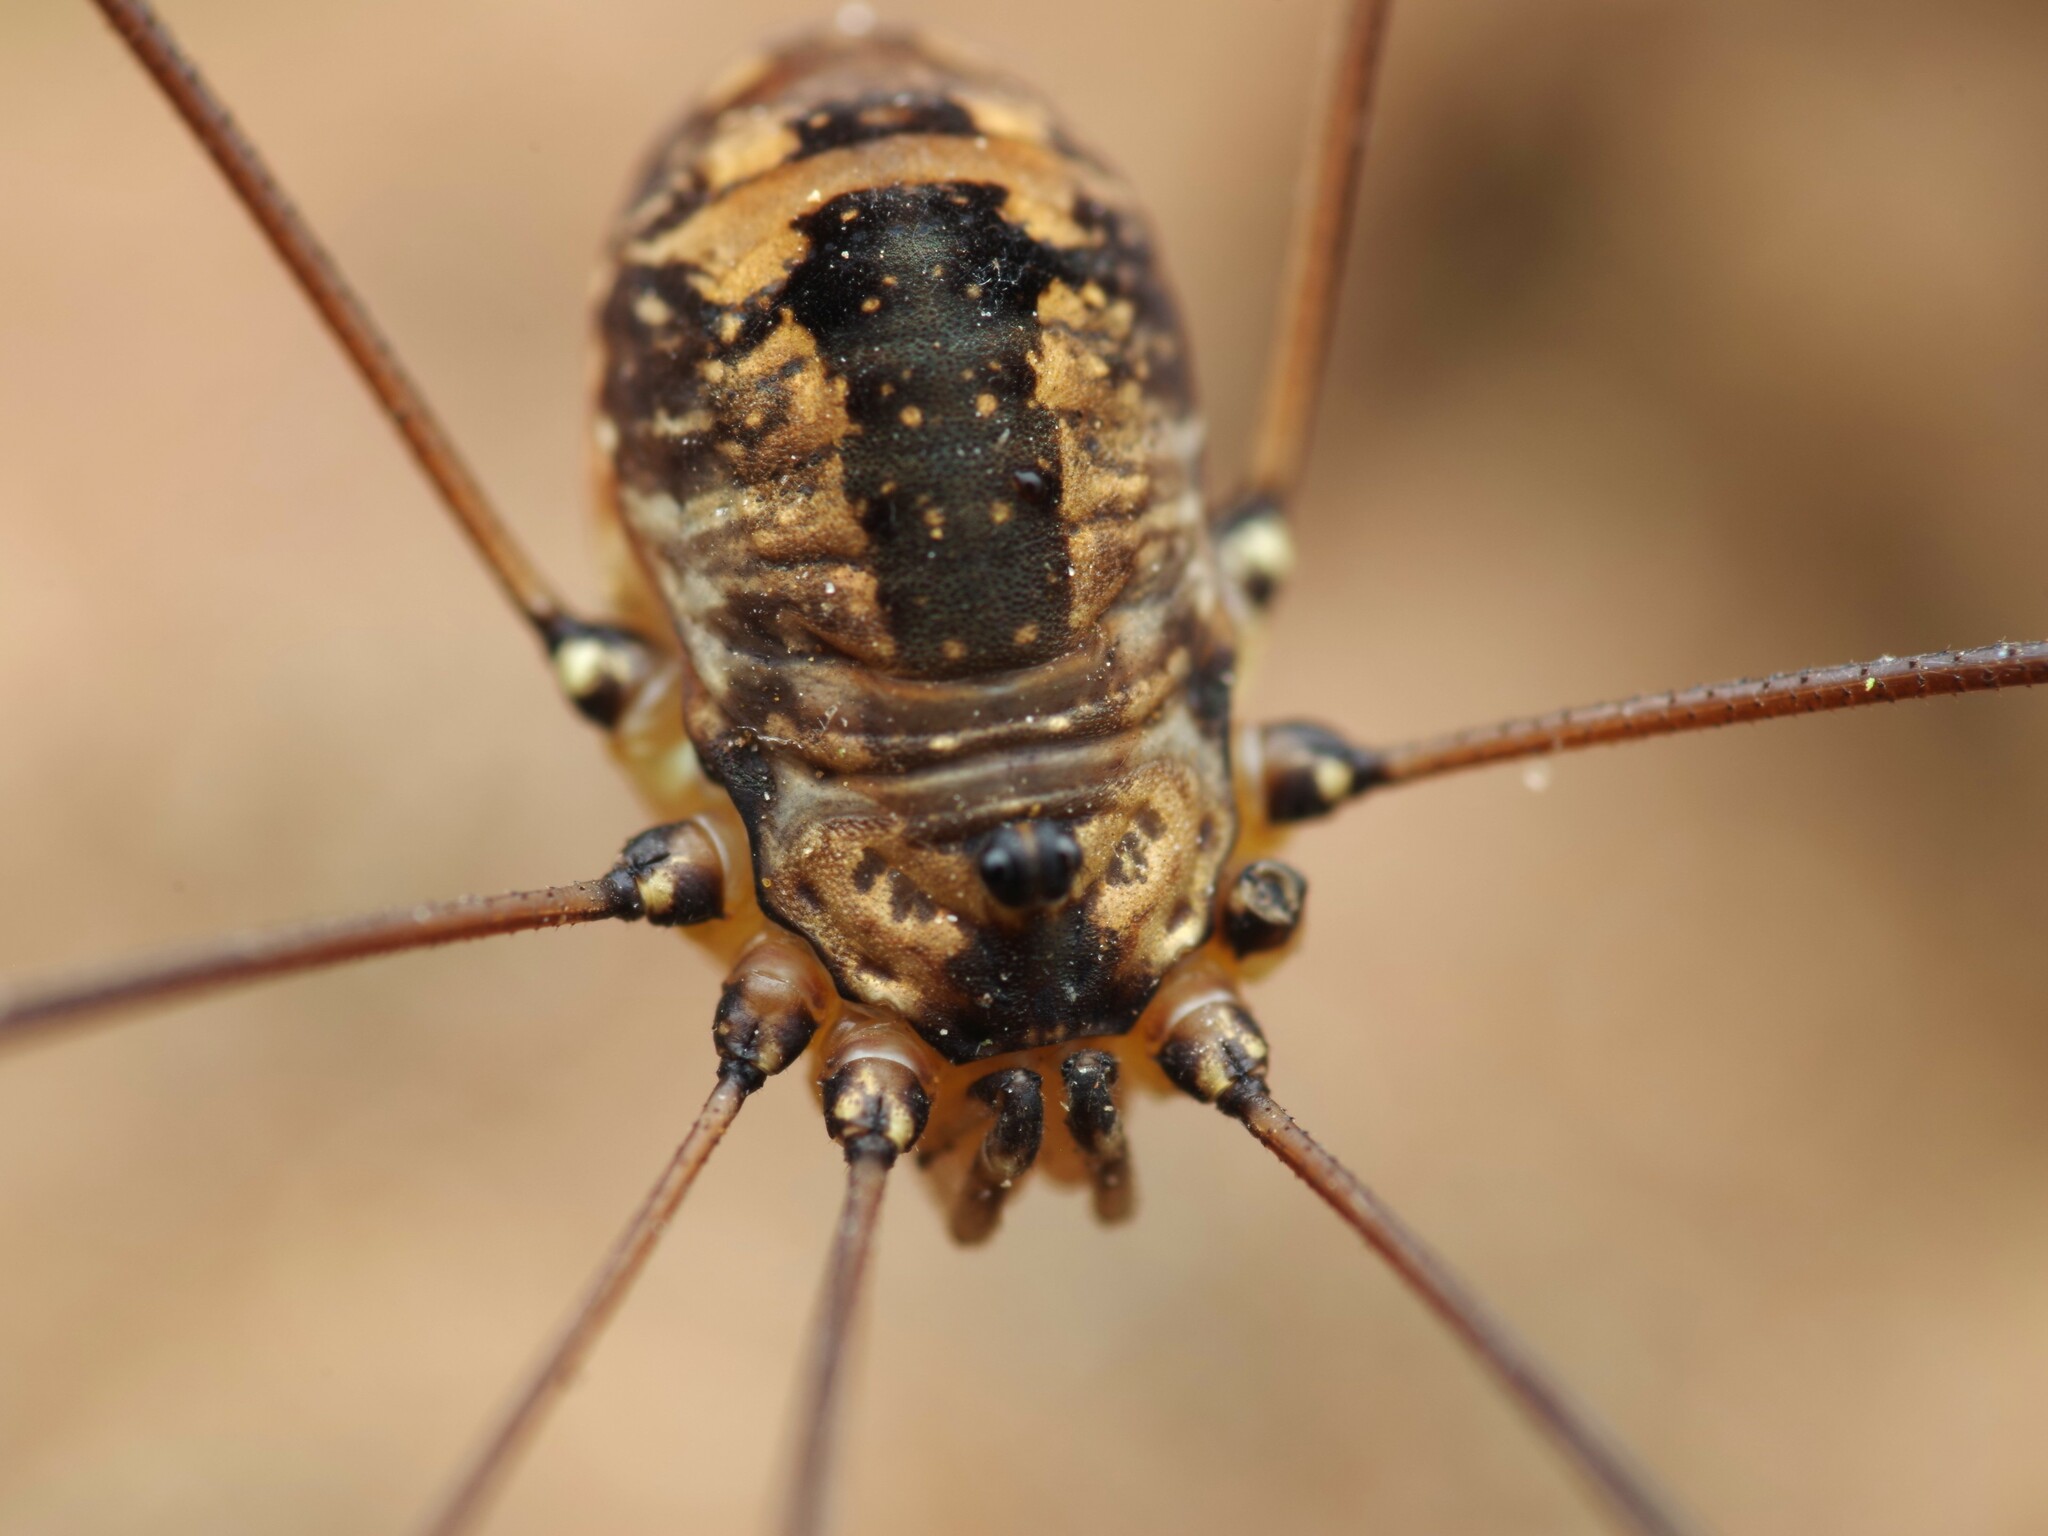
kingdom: Animalia
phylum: Arthropoda
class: Arachnida
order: Opiliones
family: Sclerosomatidae
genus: Leiobunum
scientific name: Leiobunum rotundum
